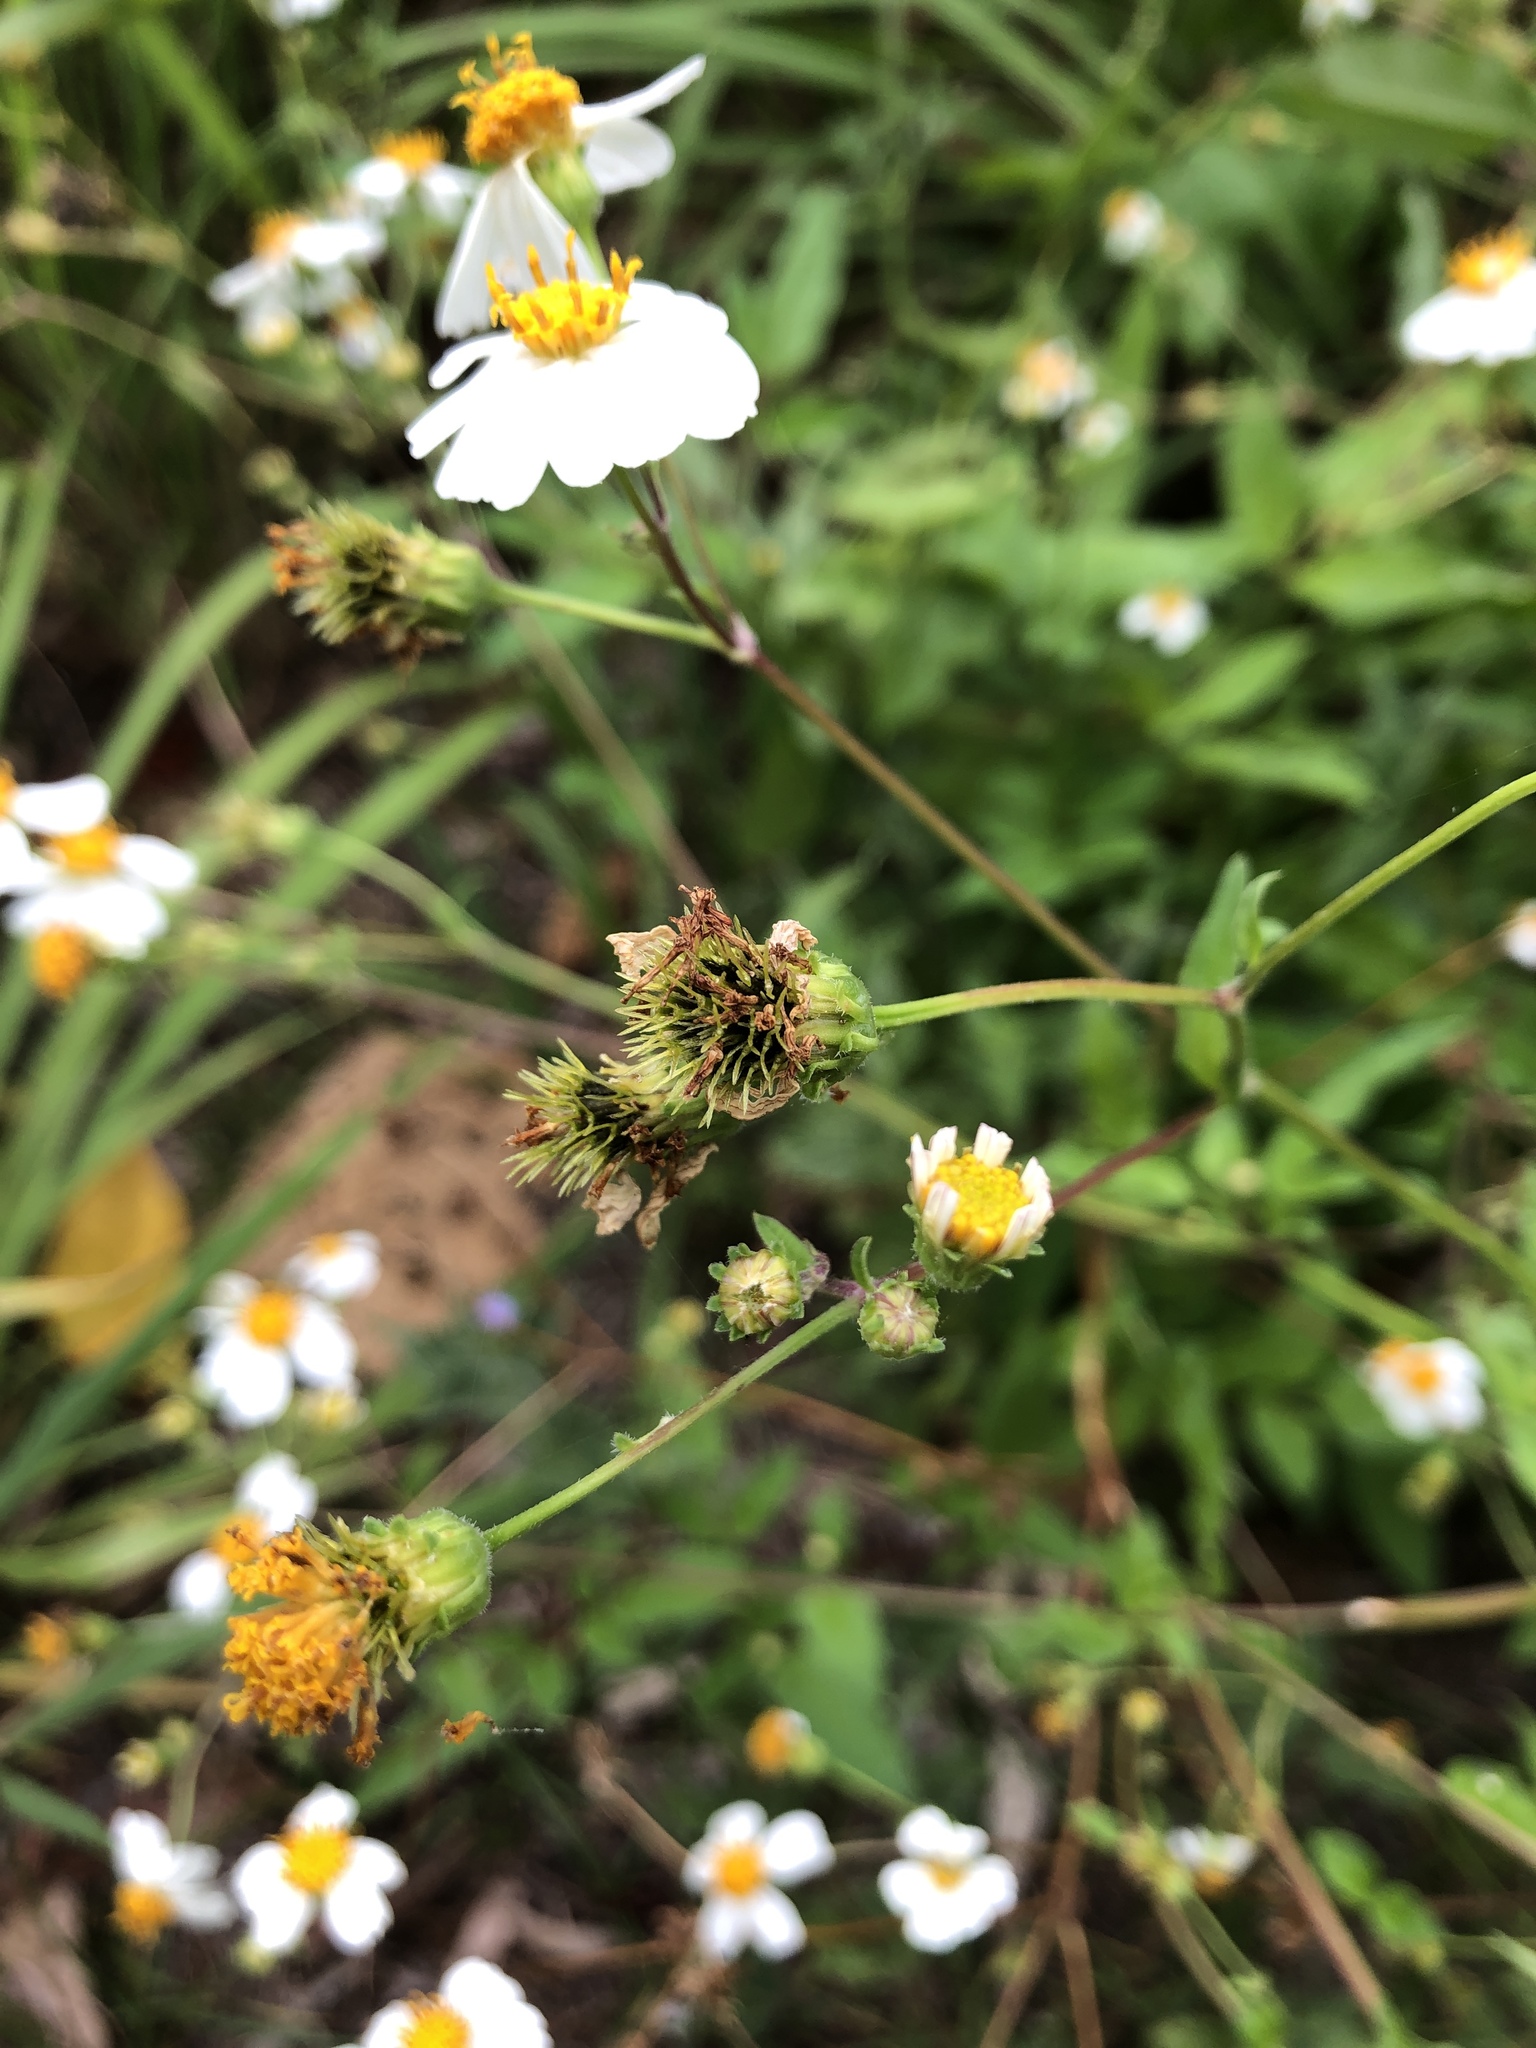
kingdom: Plantae
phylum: Tracheophyta
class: Magnoliopsida
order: Asterales
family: Asteraceae
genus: Bidens
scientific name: Bidens alba
